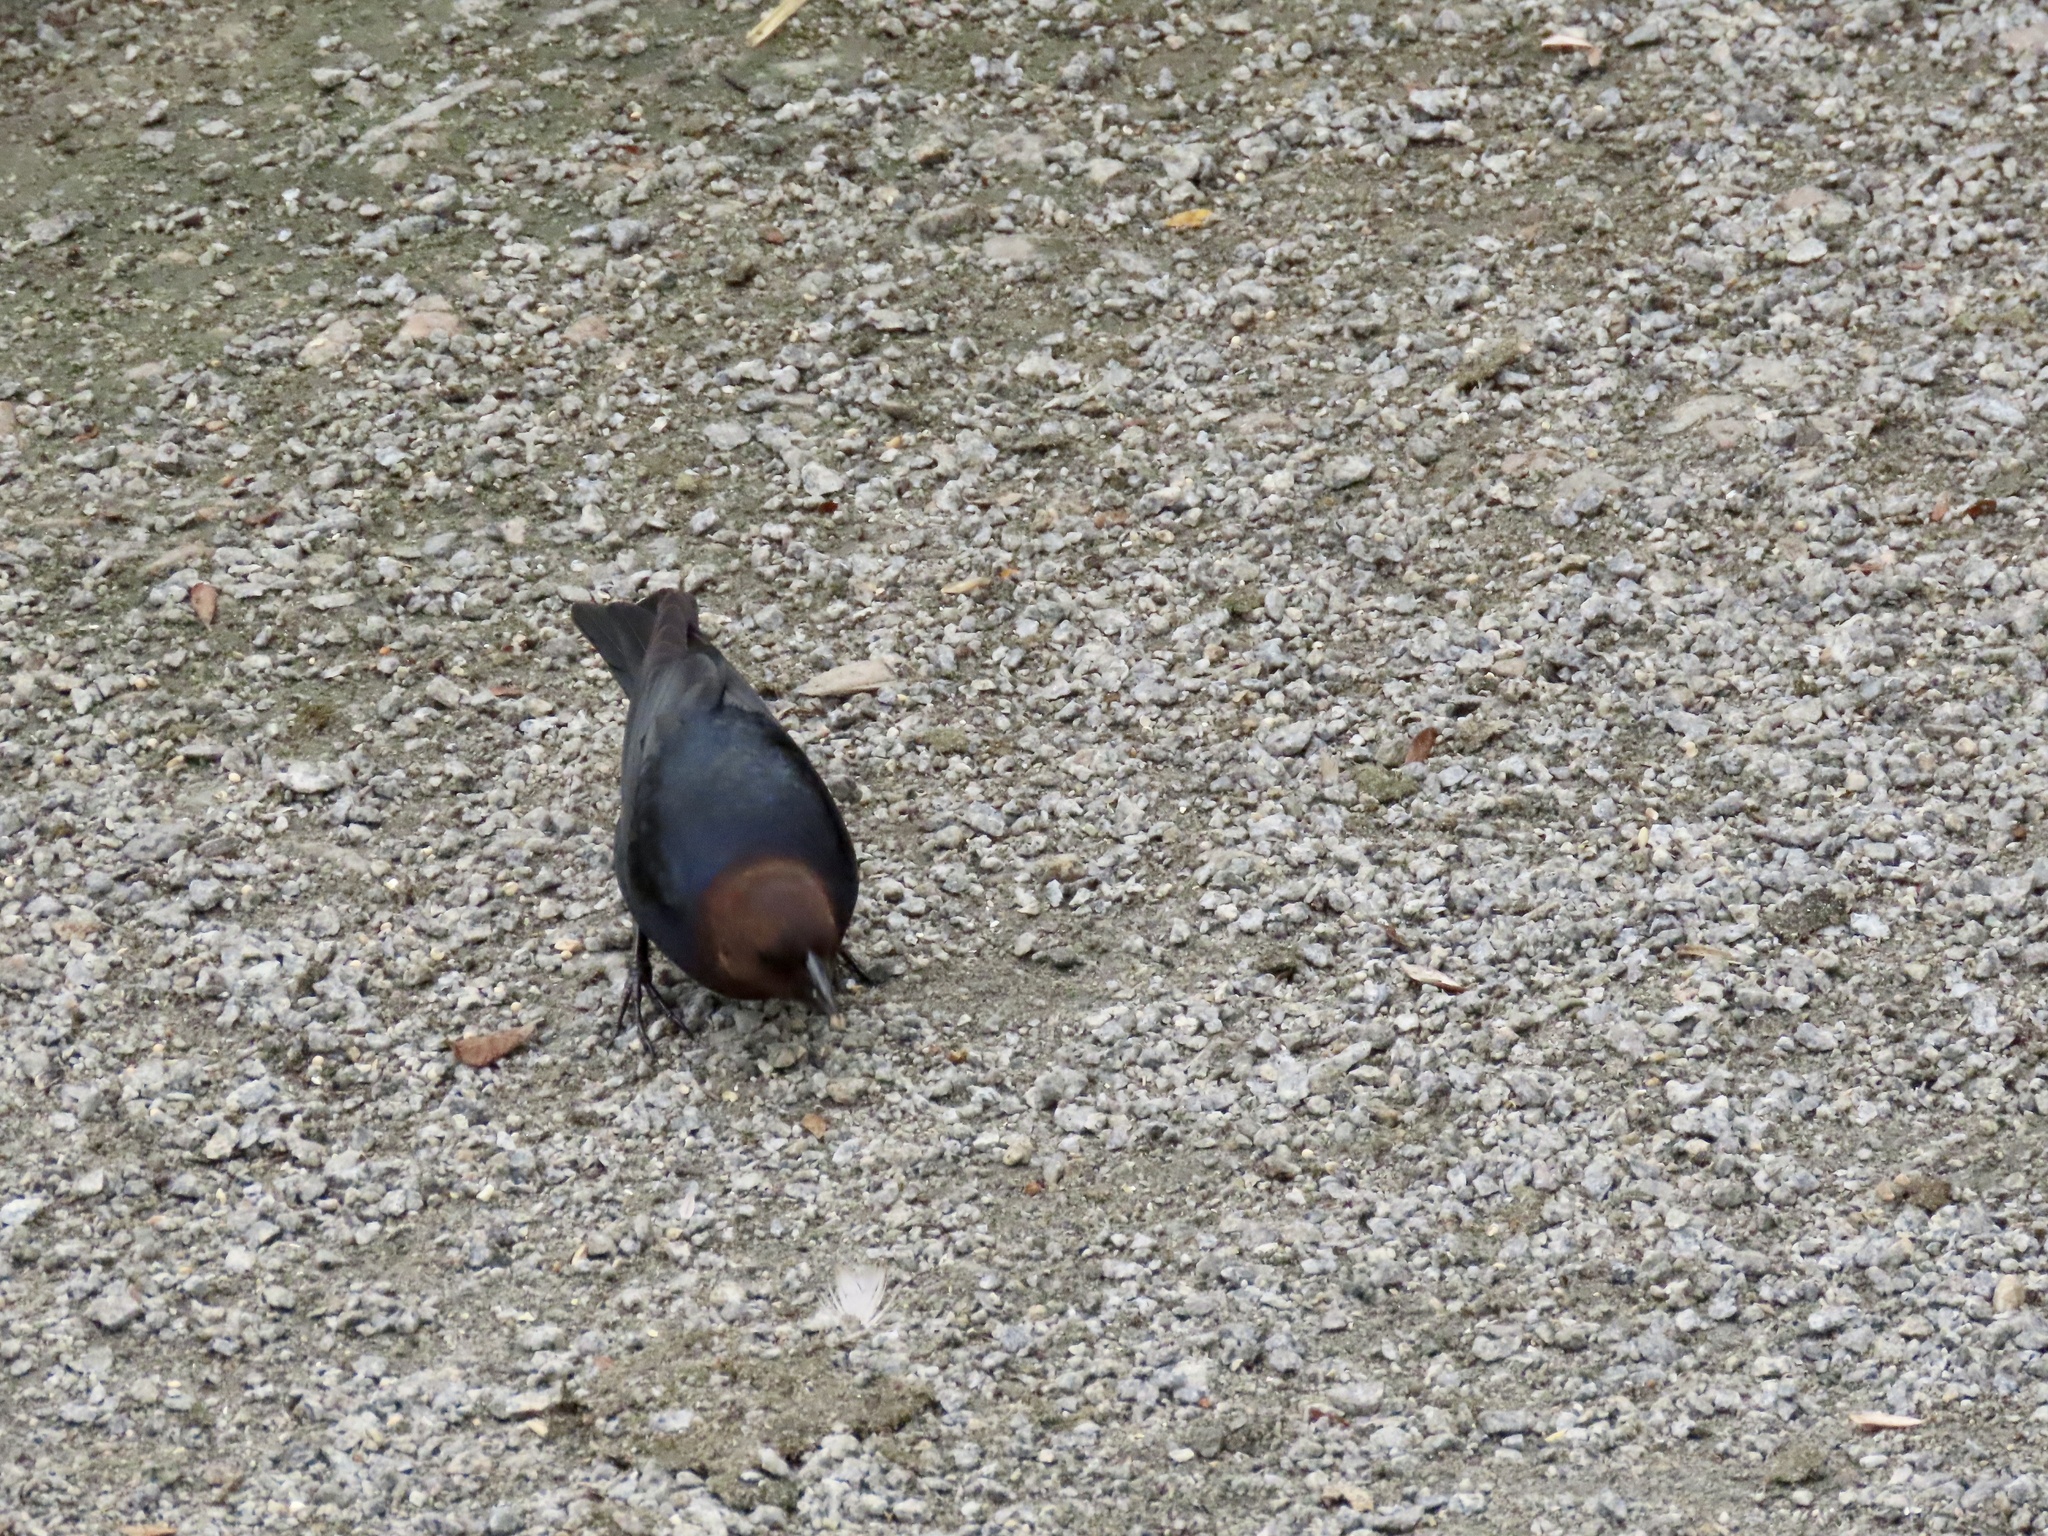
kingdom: Animalia
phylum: Chordata
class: Aves
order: Passeriformes
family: Icteridae
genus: Molothrus
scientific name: Molothrus ater
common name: Brown-headed cowbird
